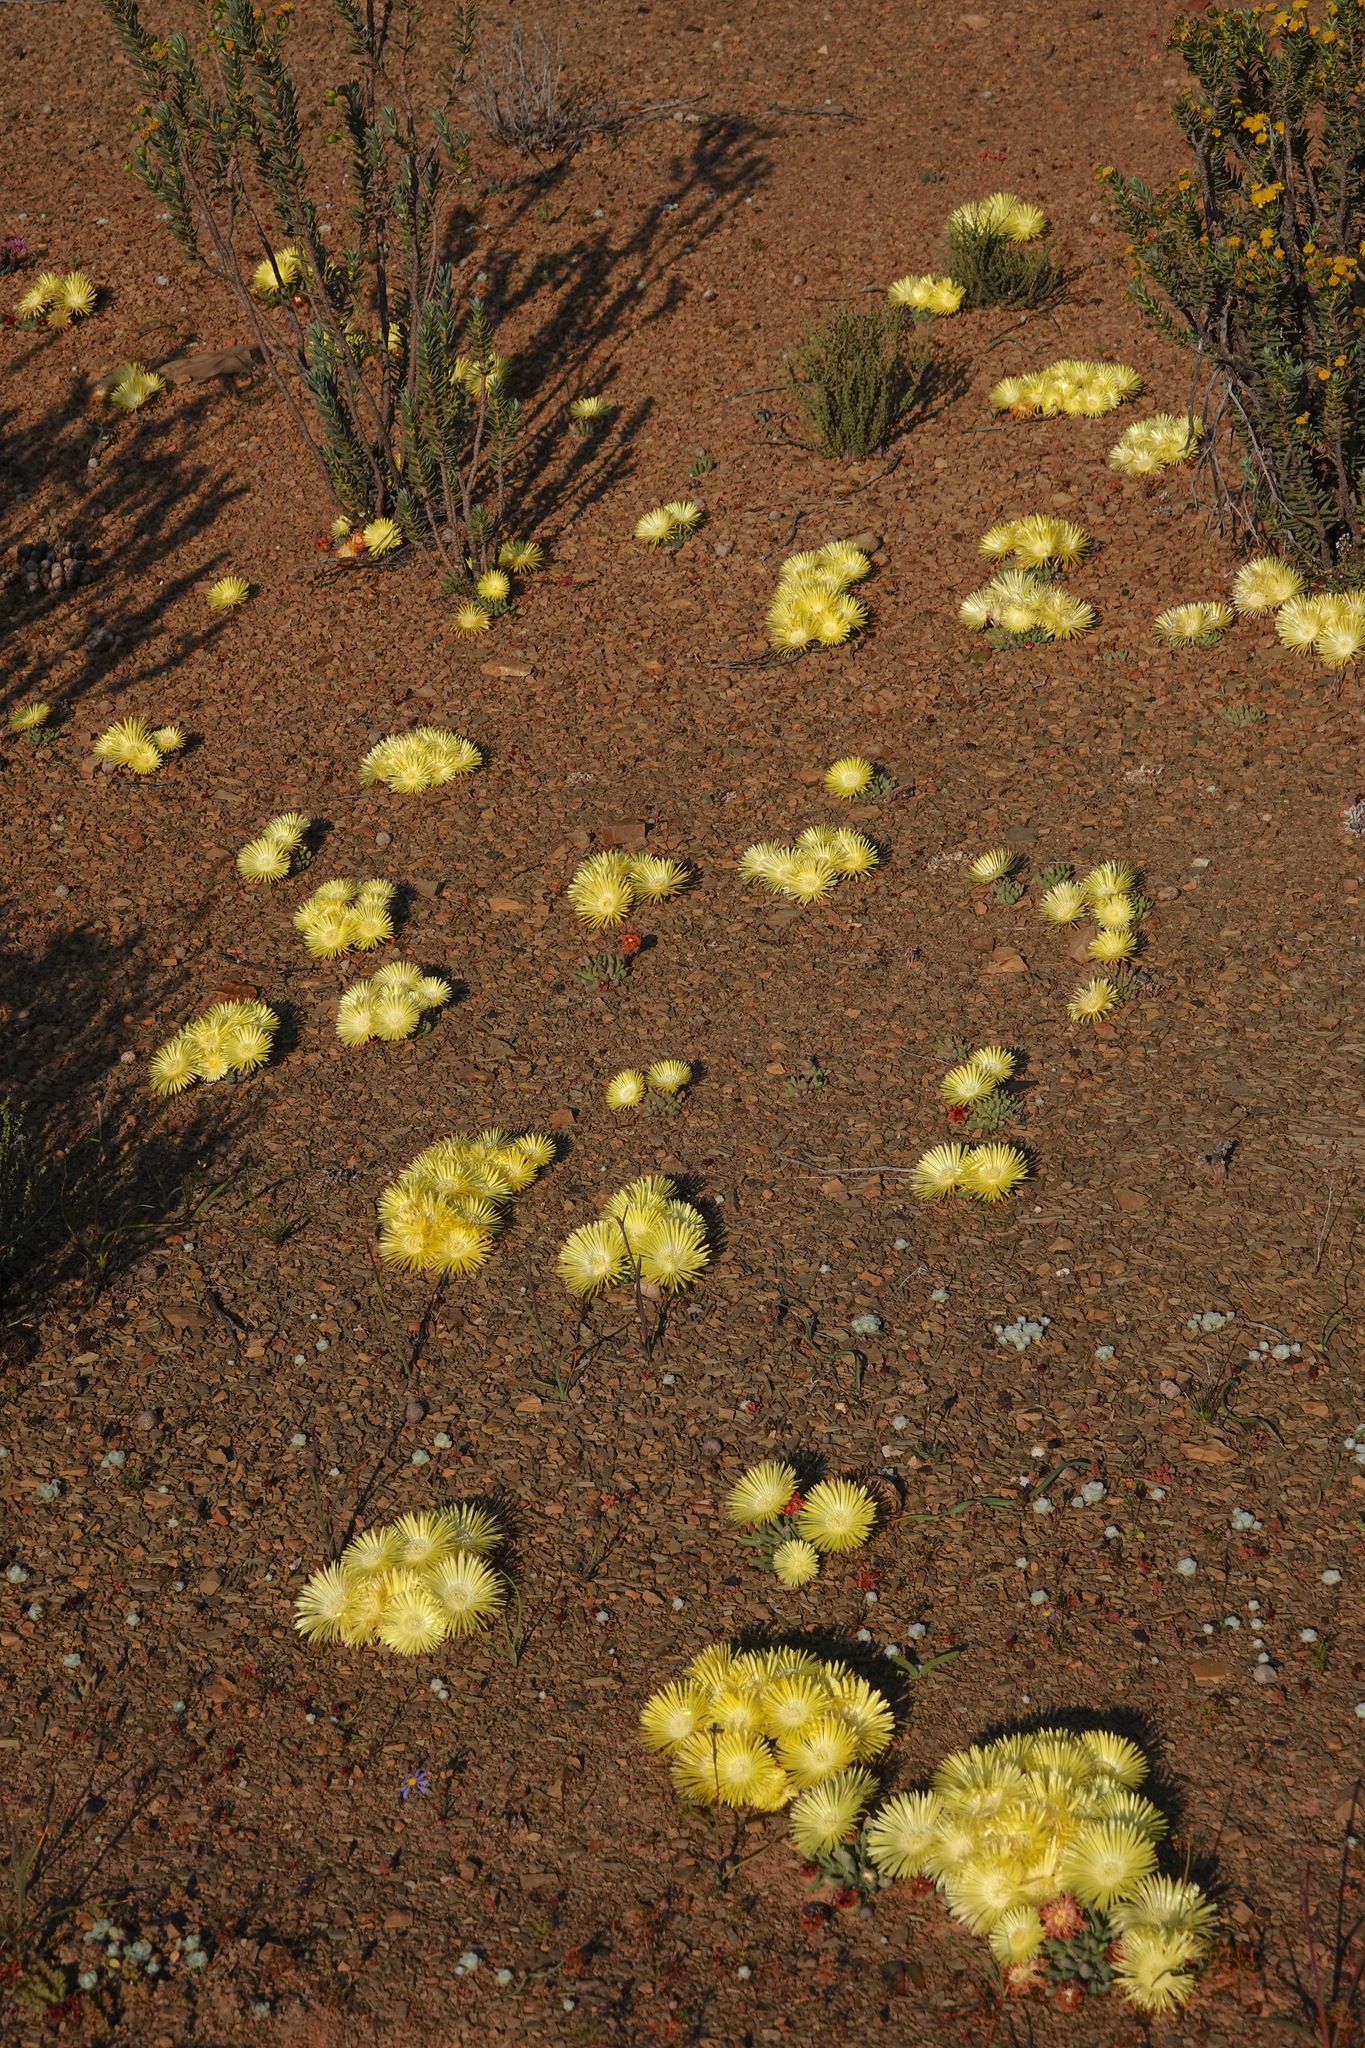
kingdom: Plantae
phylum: Tracheophyta
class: Magnoliopsida
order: Caryophyllales
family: Aizoaceae
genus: Cheiridopsis
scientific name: Cheiridopsis namaquensis
